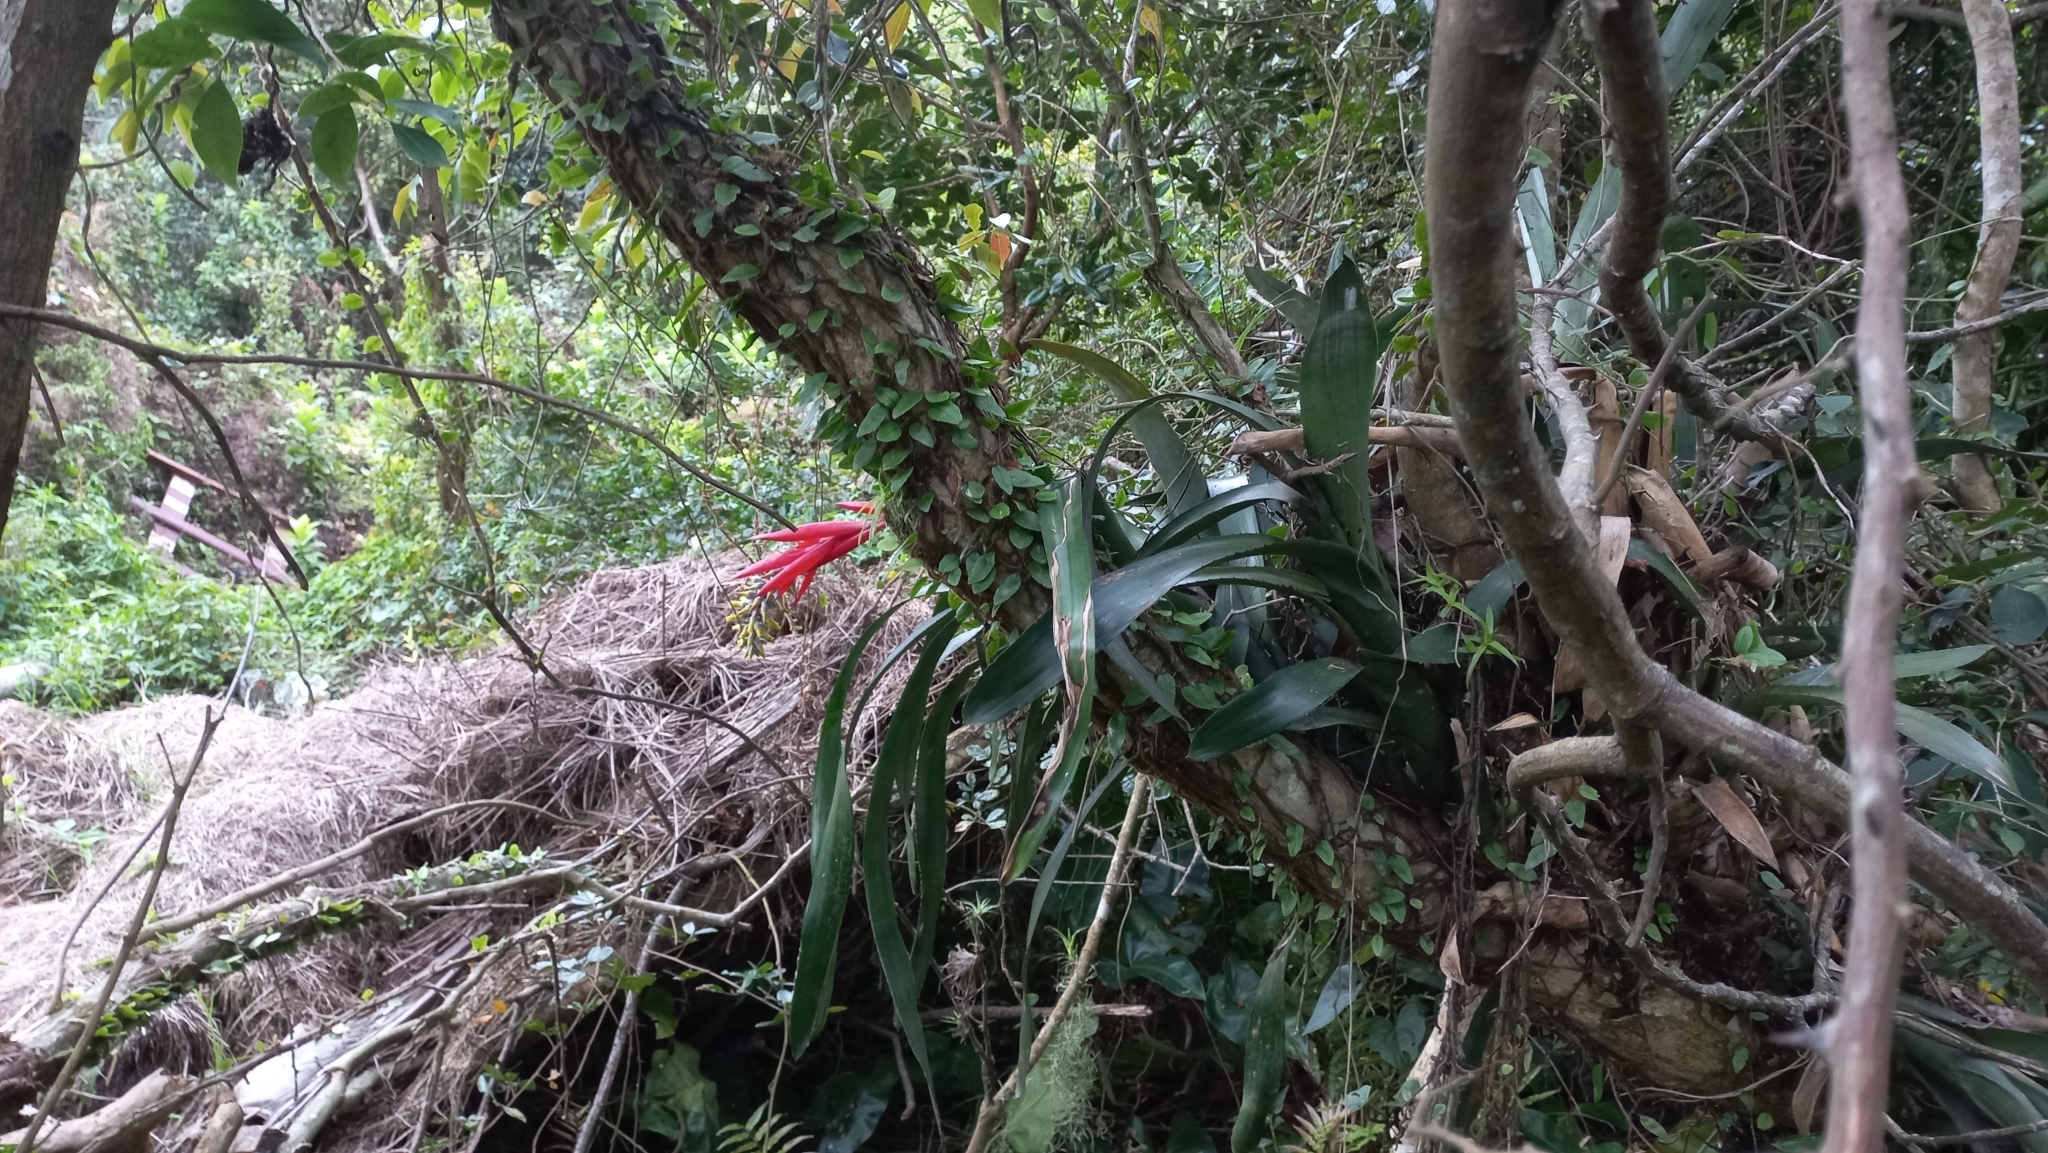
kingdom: Plantae
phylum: Tracheophyta
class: Liliopsida
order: Poales
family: Bromeliaceae
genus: Aechmea
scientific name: Aechmea nudicaulis
